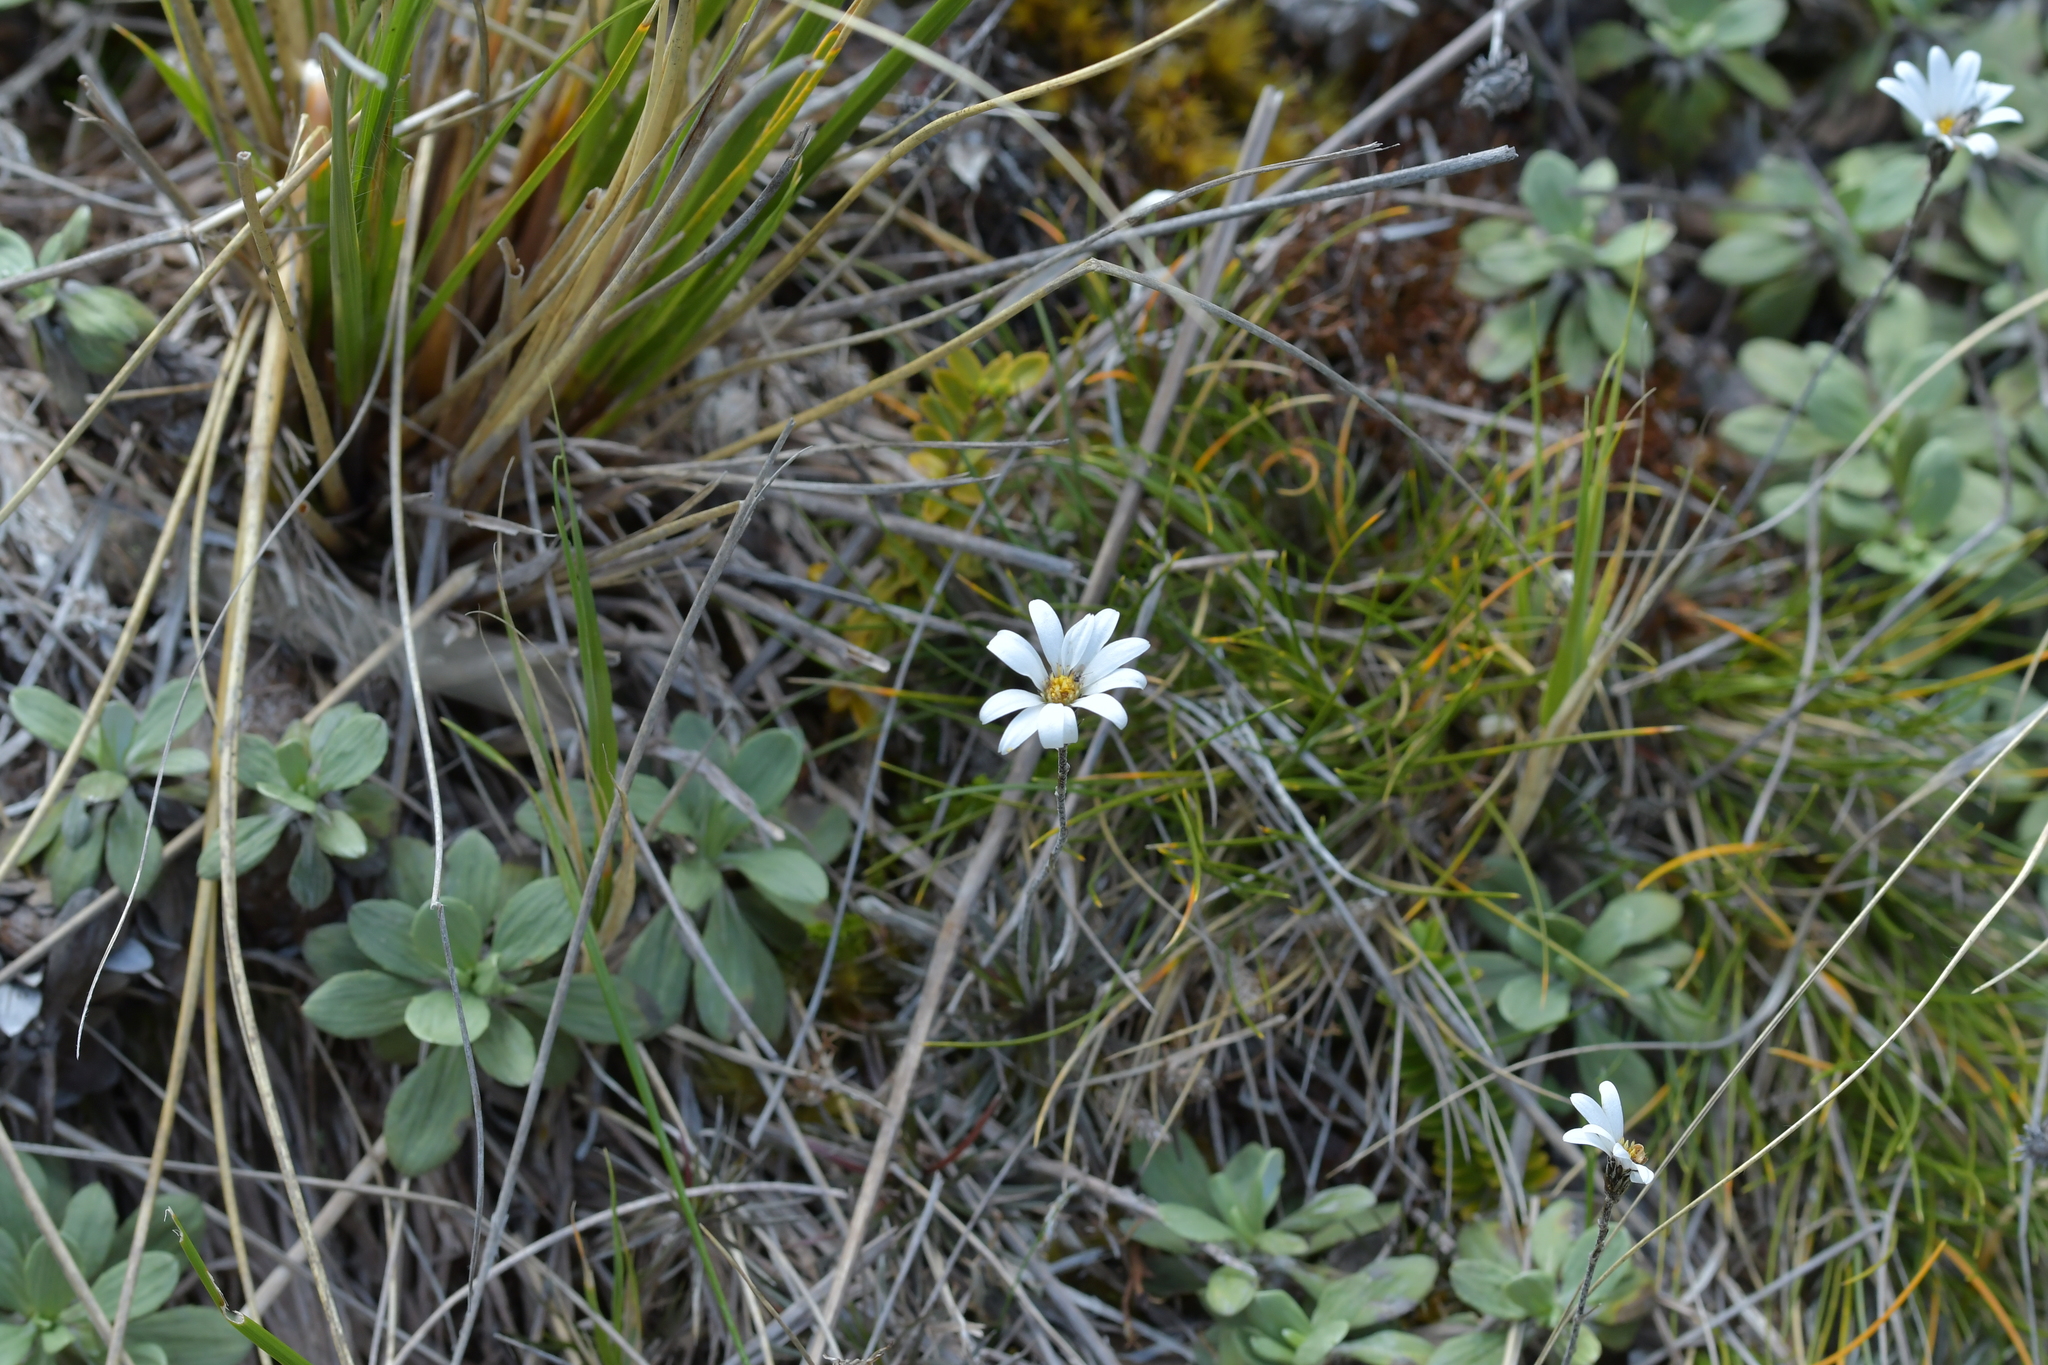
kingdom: Plantae
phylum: Tracheophyta
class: Magnoliopsida
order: Asterales
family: Asteraceae
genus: Celmisia
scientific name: Celmisia laricifolia
